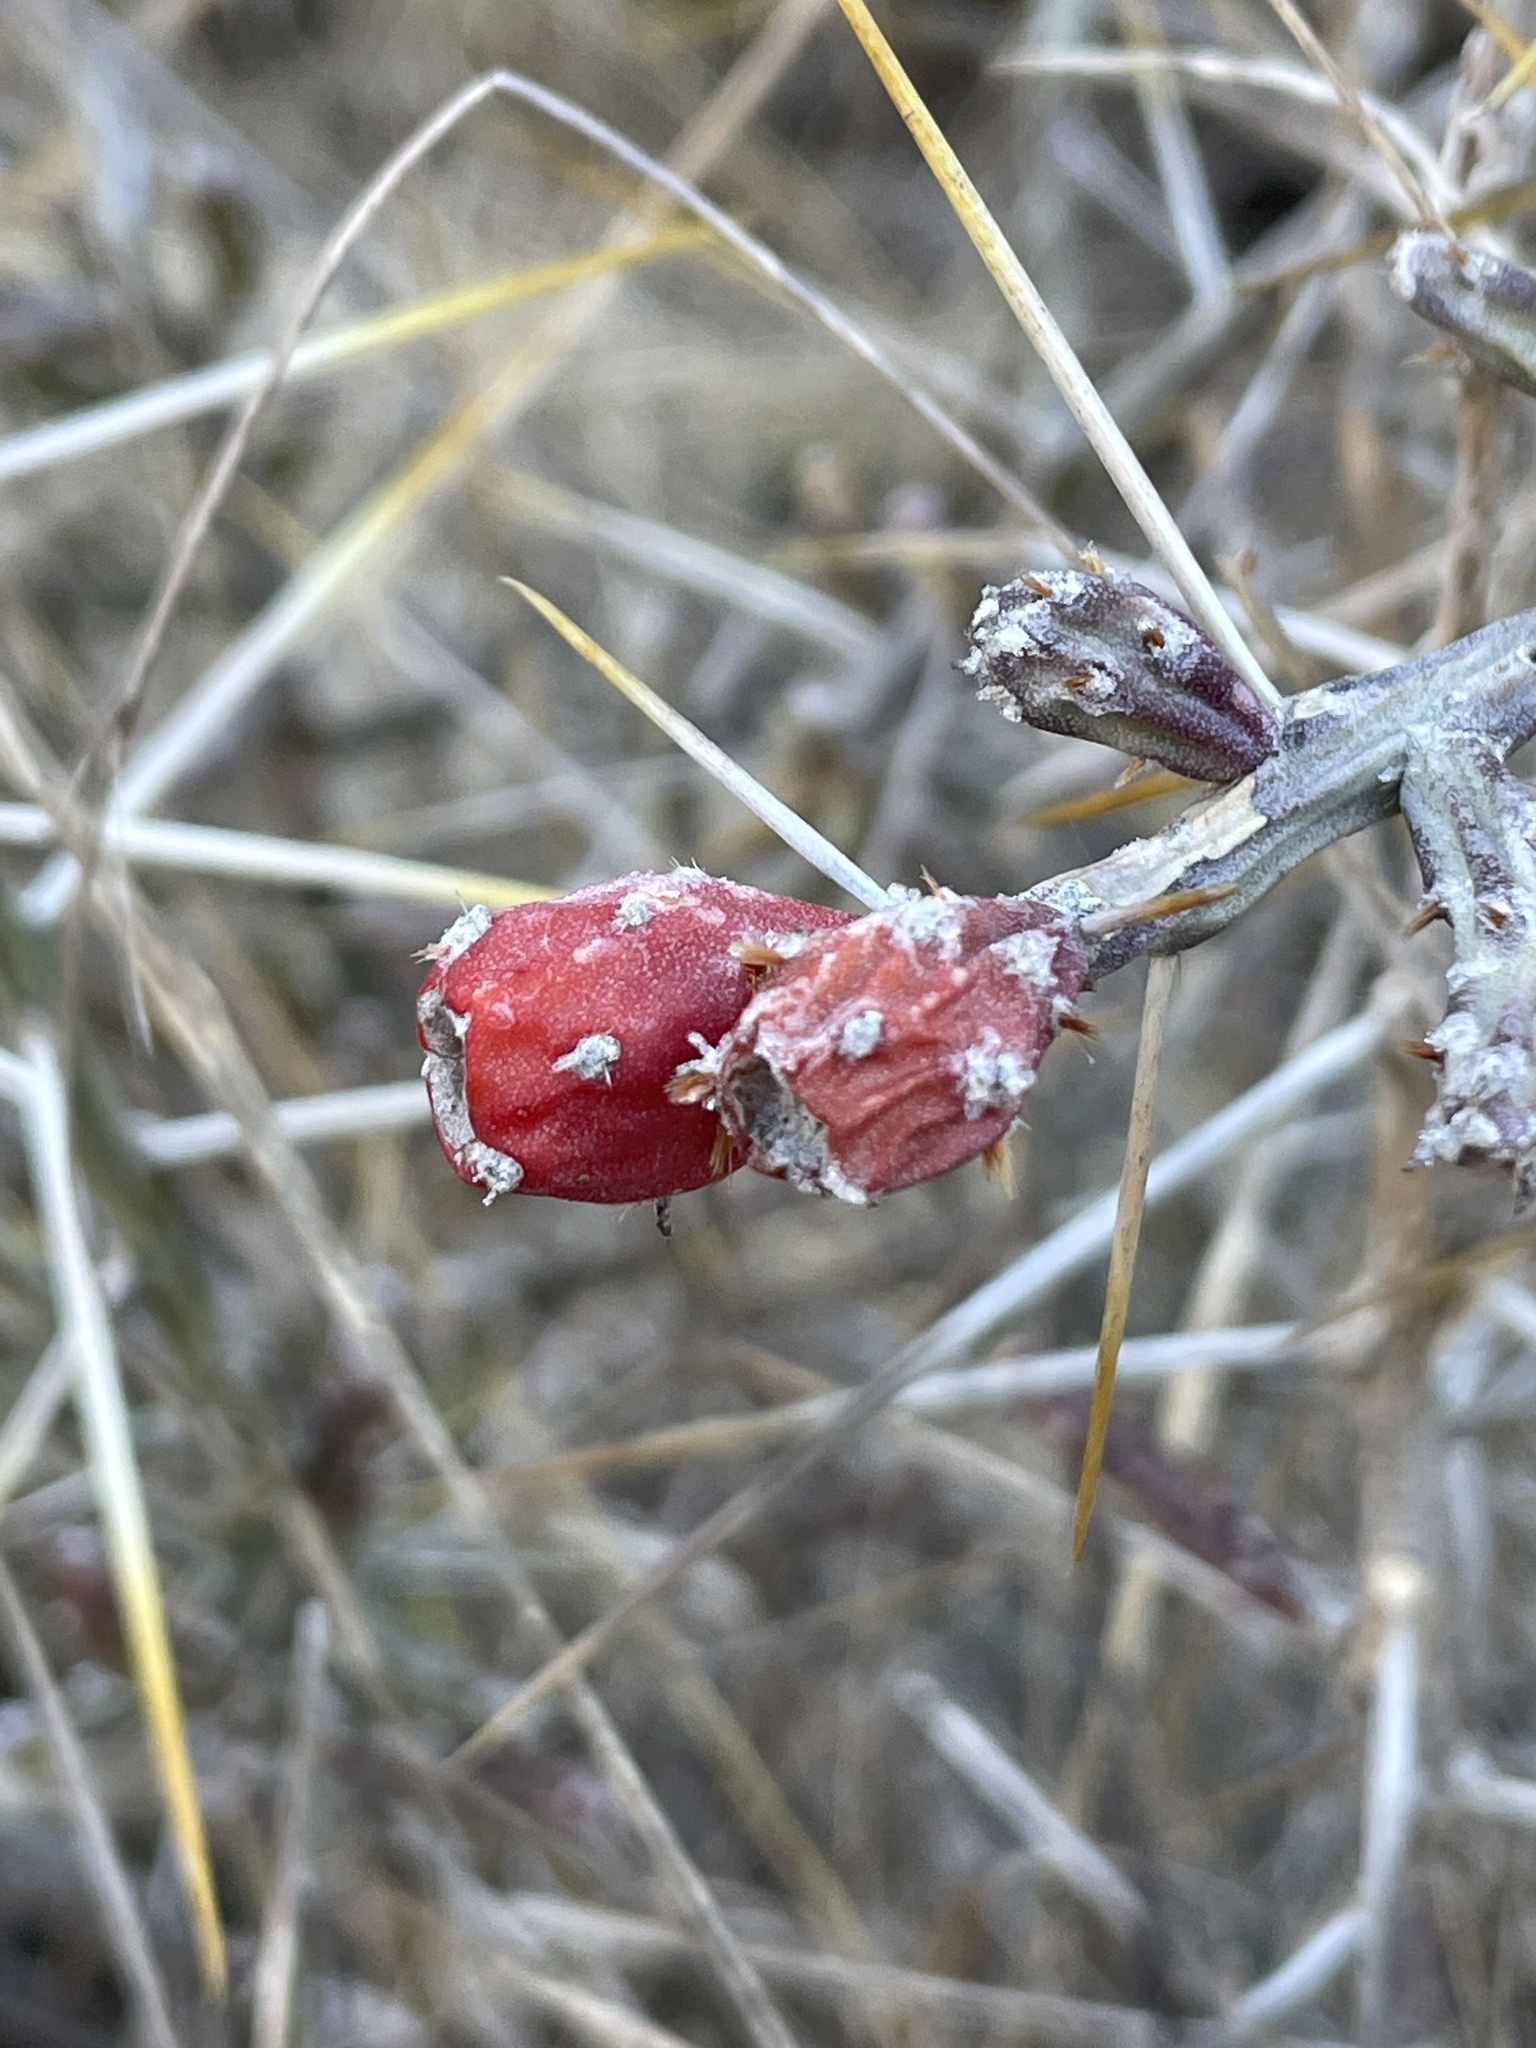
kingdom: Plantae
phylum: Tracheophyta
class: Magnoliopsida
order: Caryophyllales
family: Cactaceae
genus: Cylindropuntia
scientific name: Cylindropuntia leptocaulis
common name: Christmas cactus
